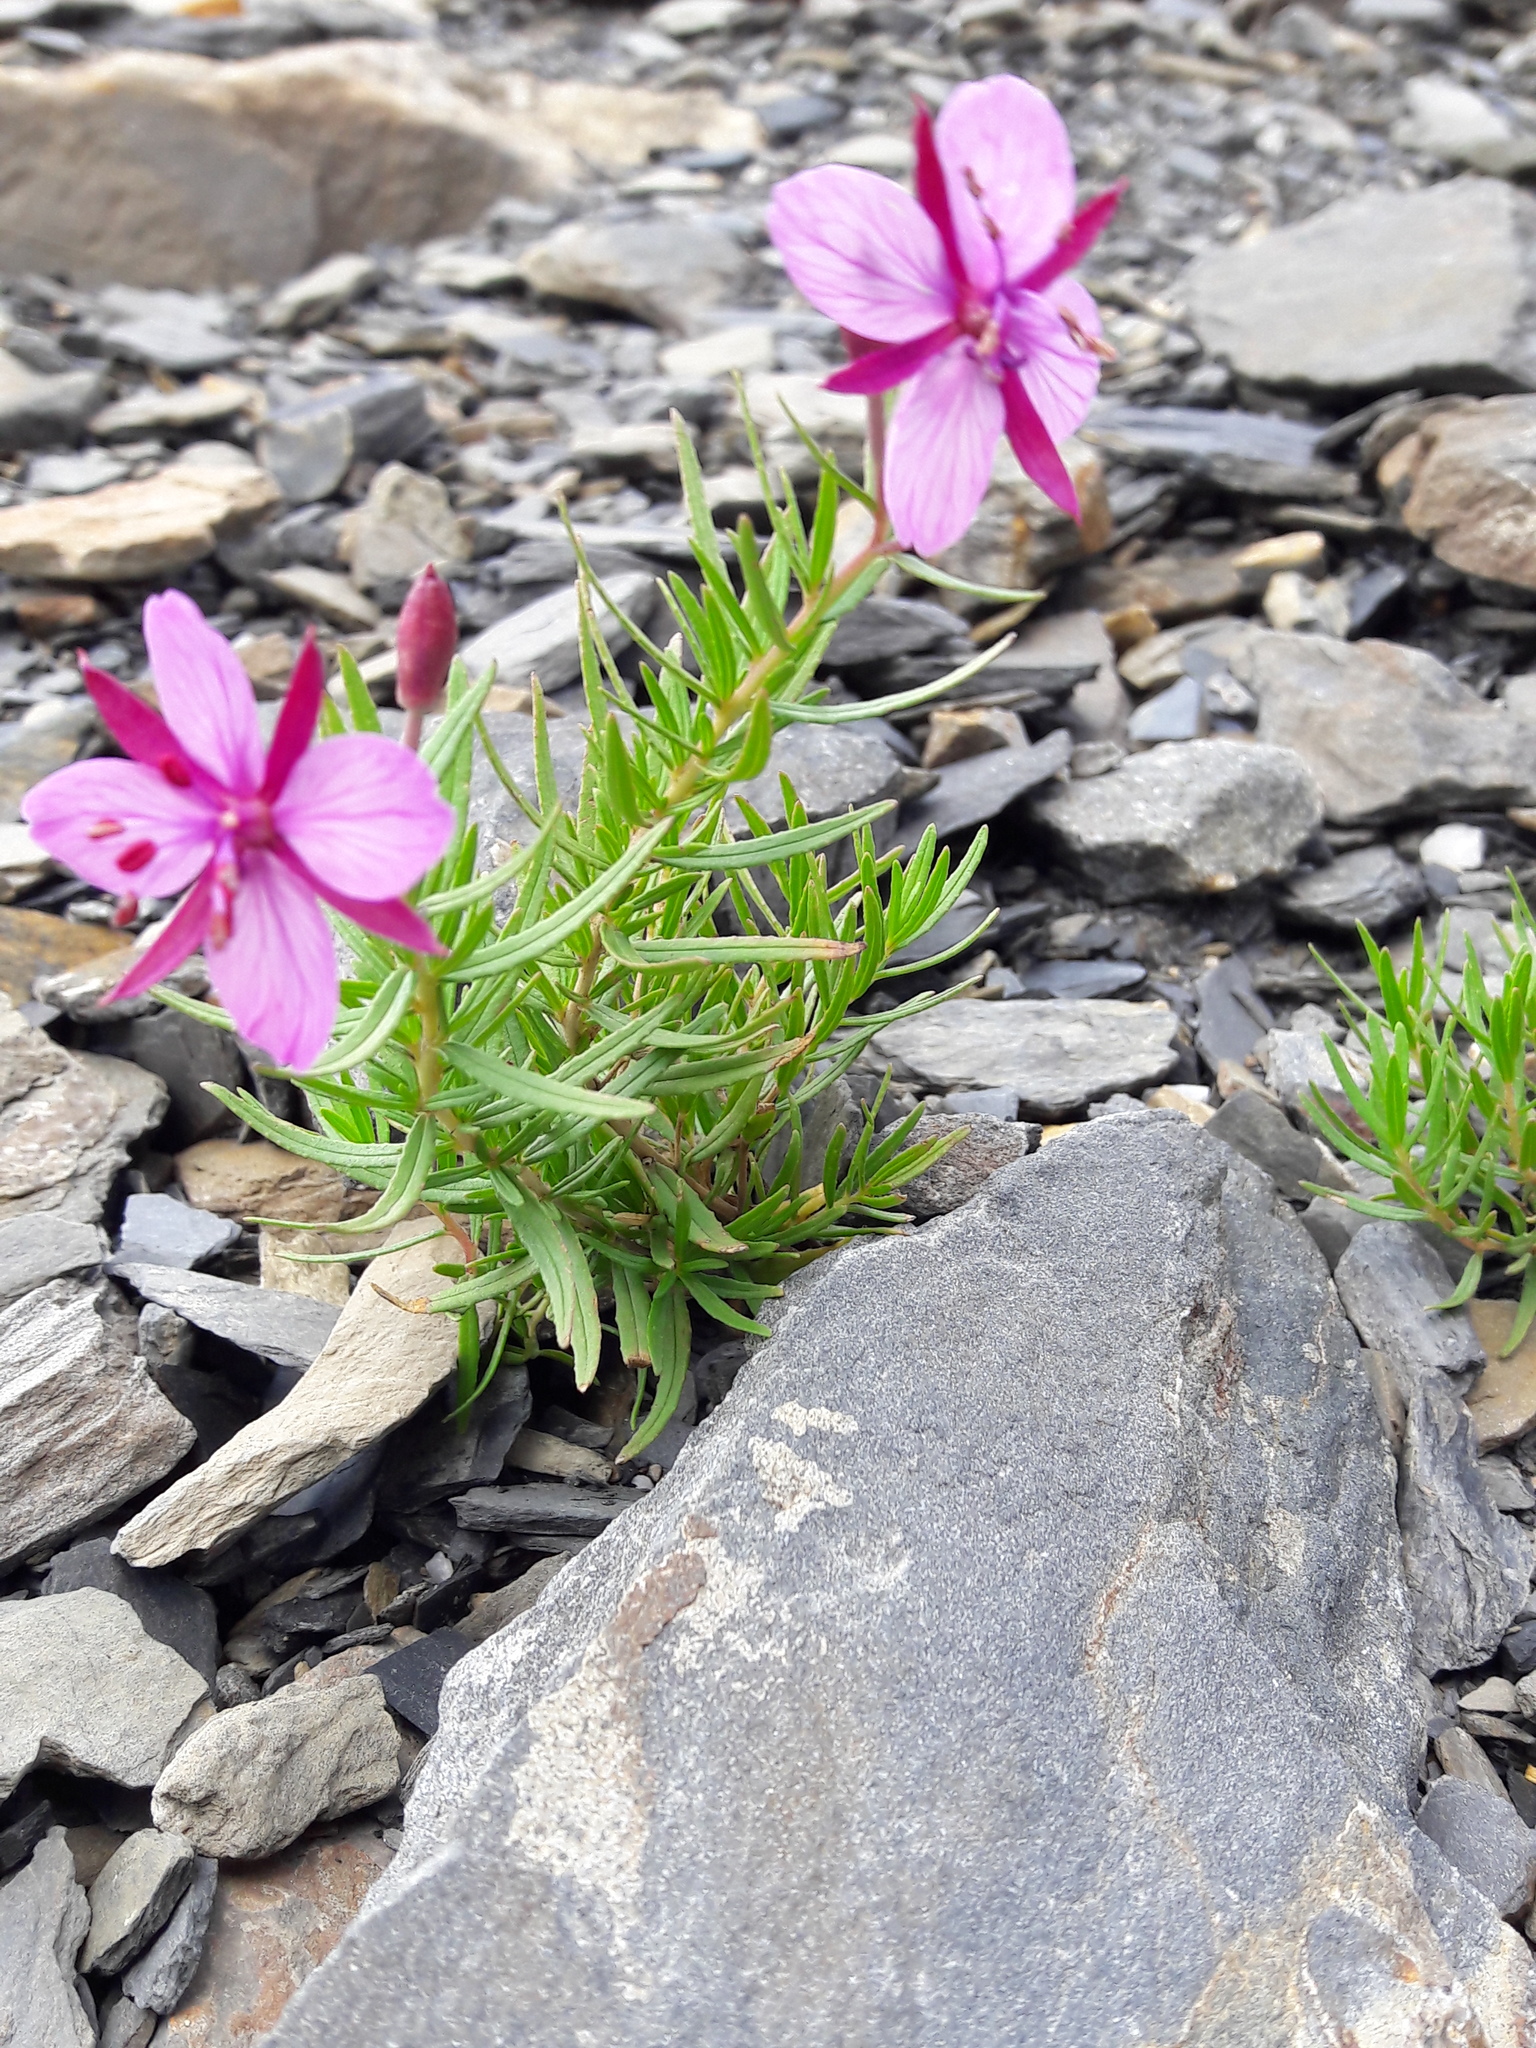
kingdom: Plantae
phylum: Tracheophyta
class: Magnoliopsida
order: Myrtales
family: Onagraceae
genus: Chamaenerion
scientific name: Chamaenerion fleischeri
